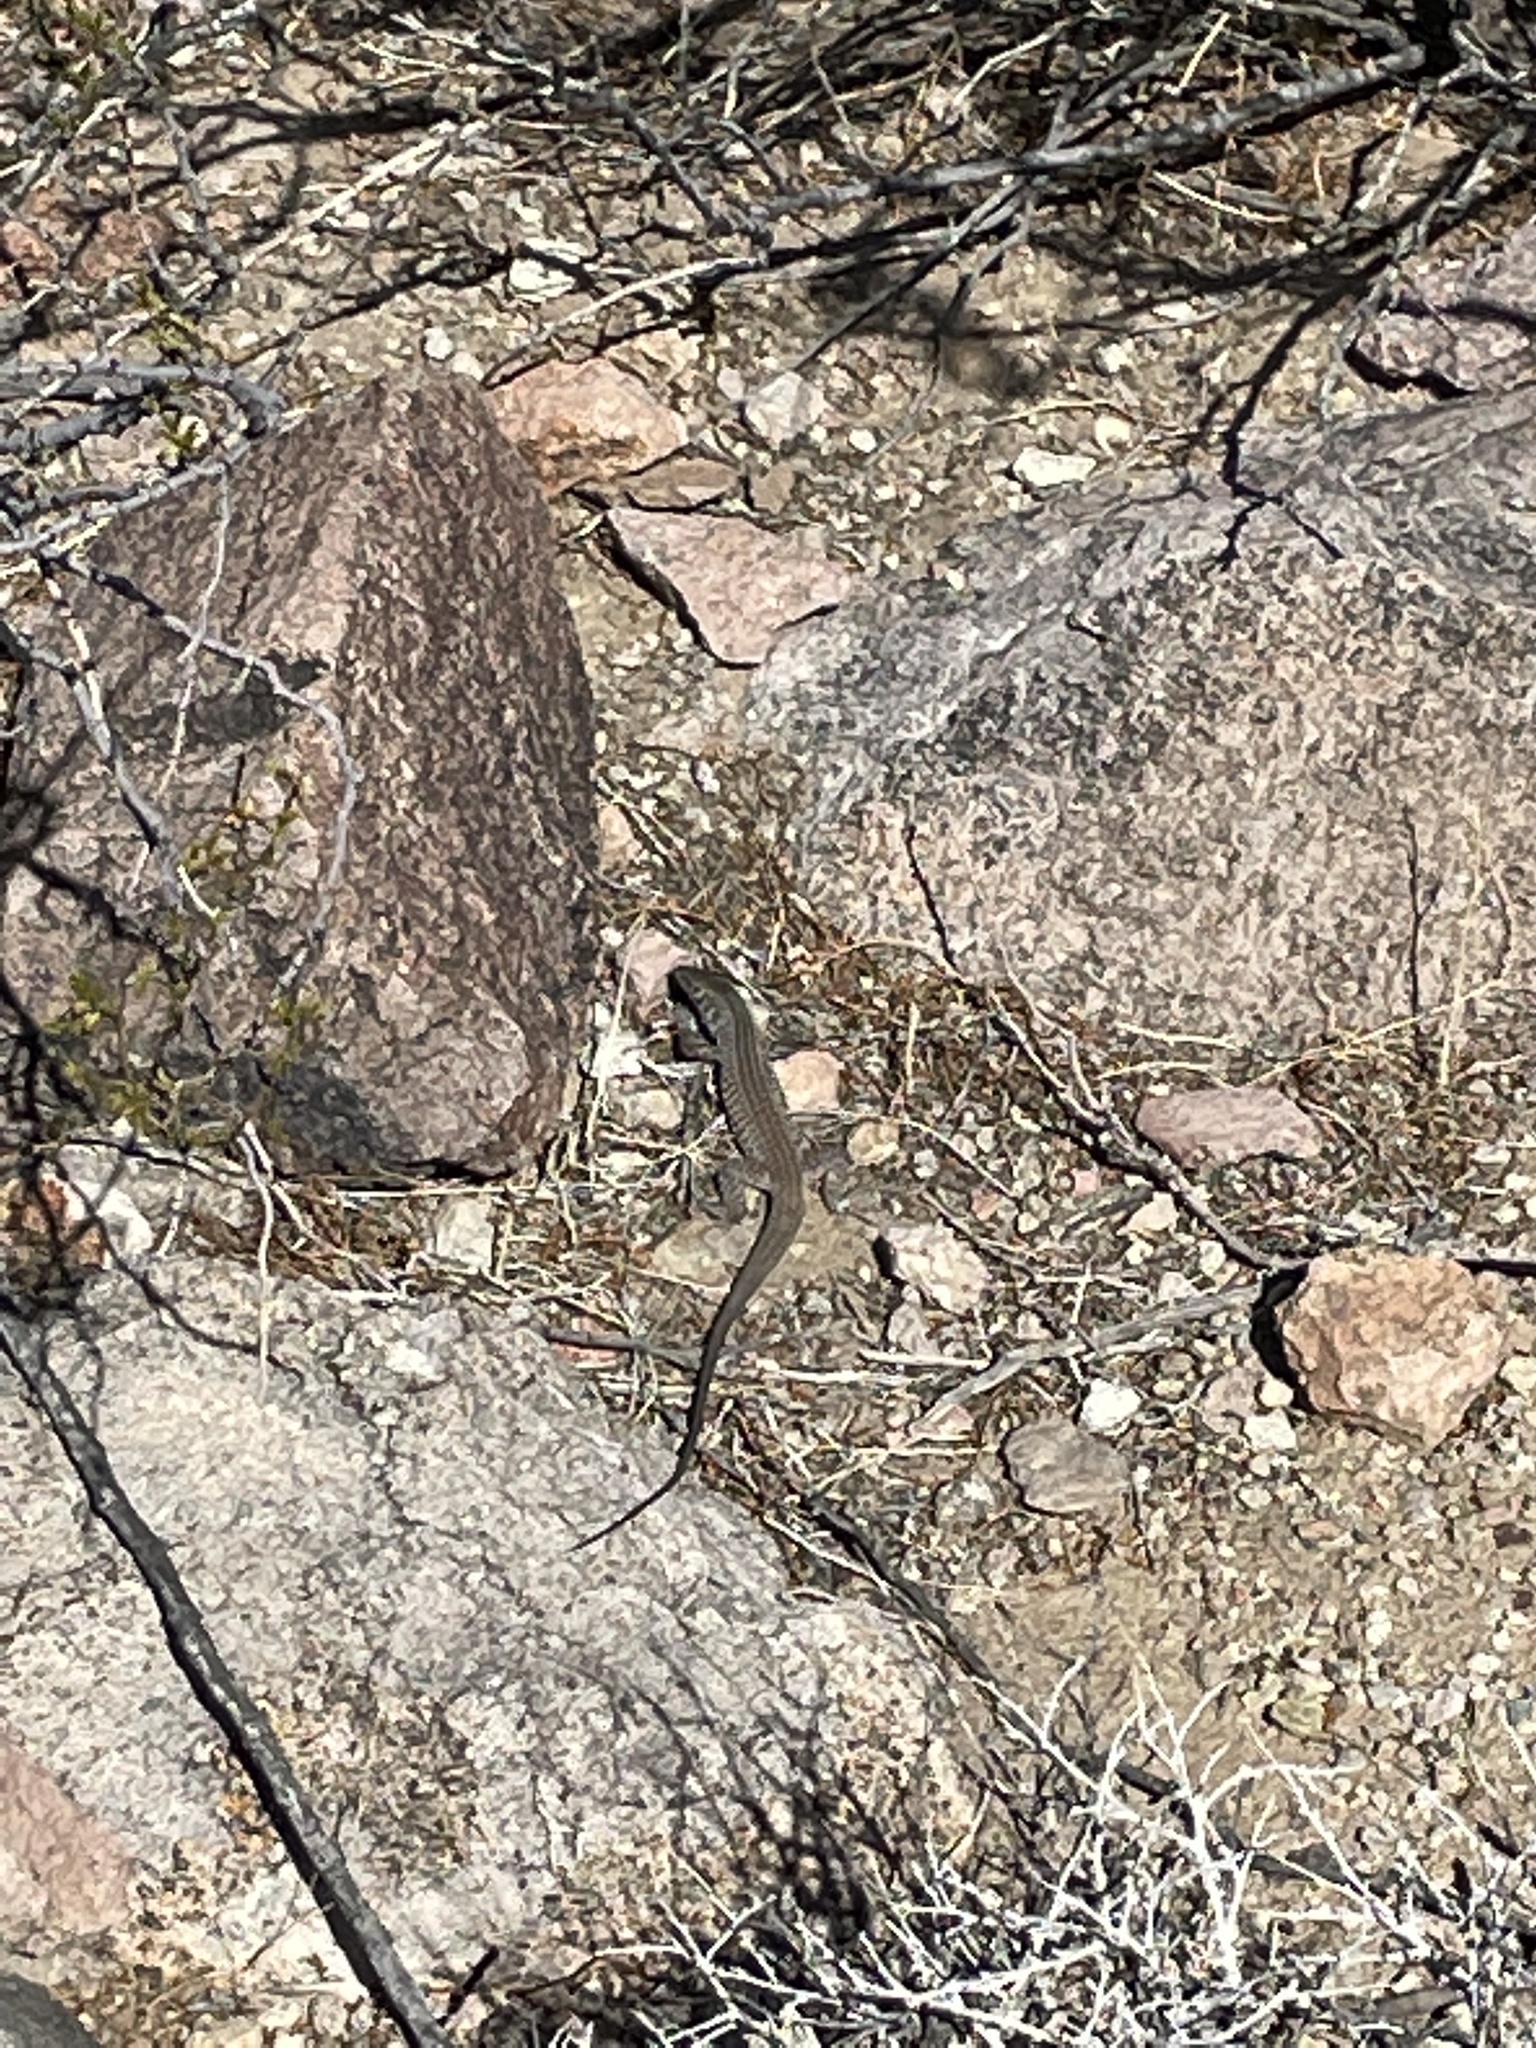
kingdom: Animalia
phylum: Chordata
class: Squamata
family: Teiidae
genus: Aspidoscelis
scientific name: Aspidoscelis tigris
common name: Tiger whiptail
